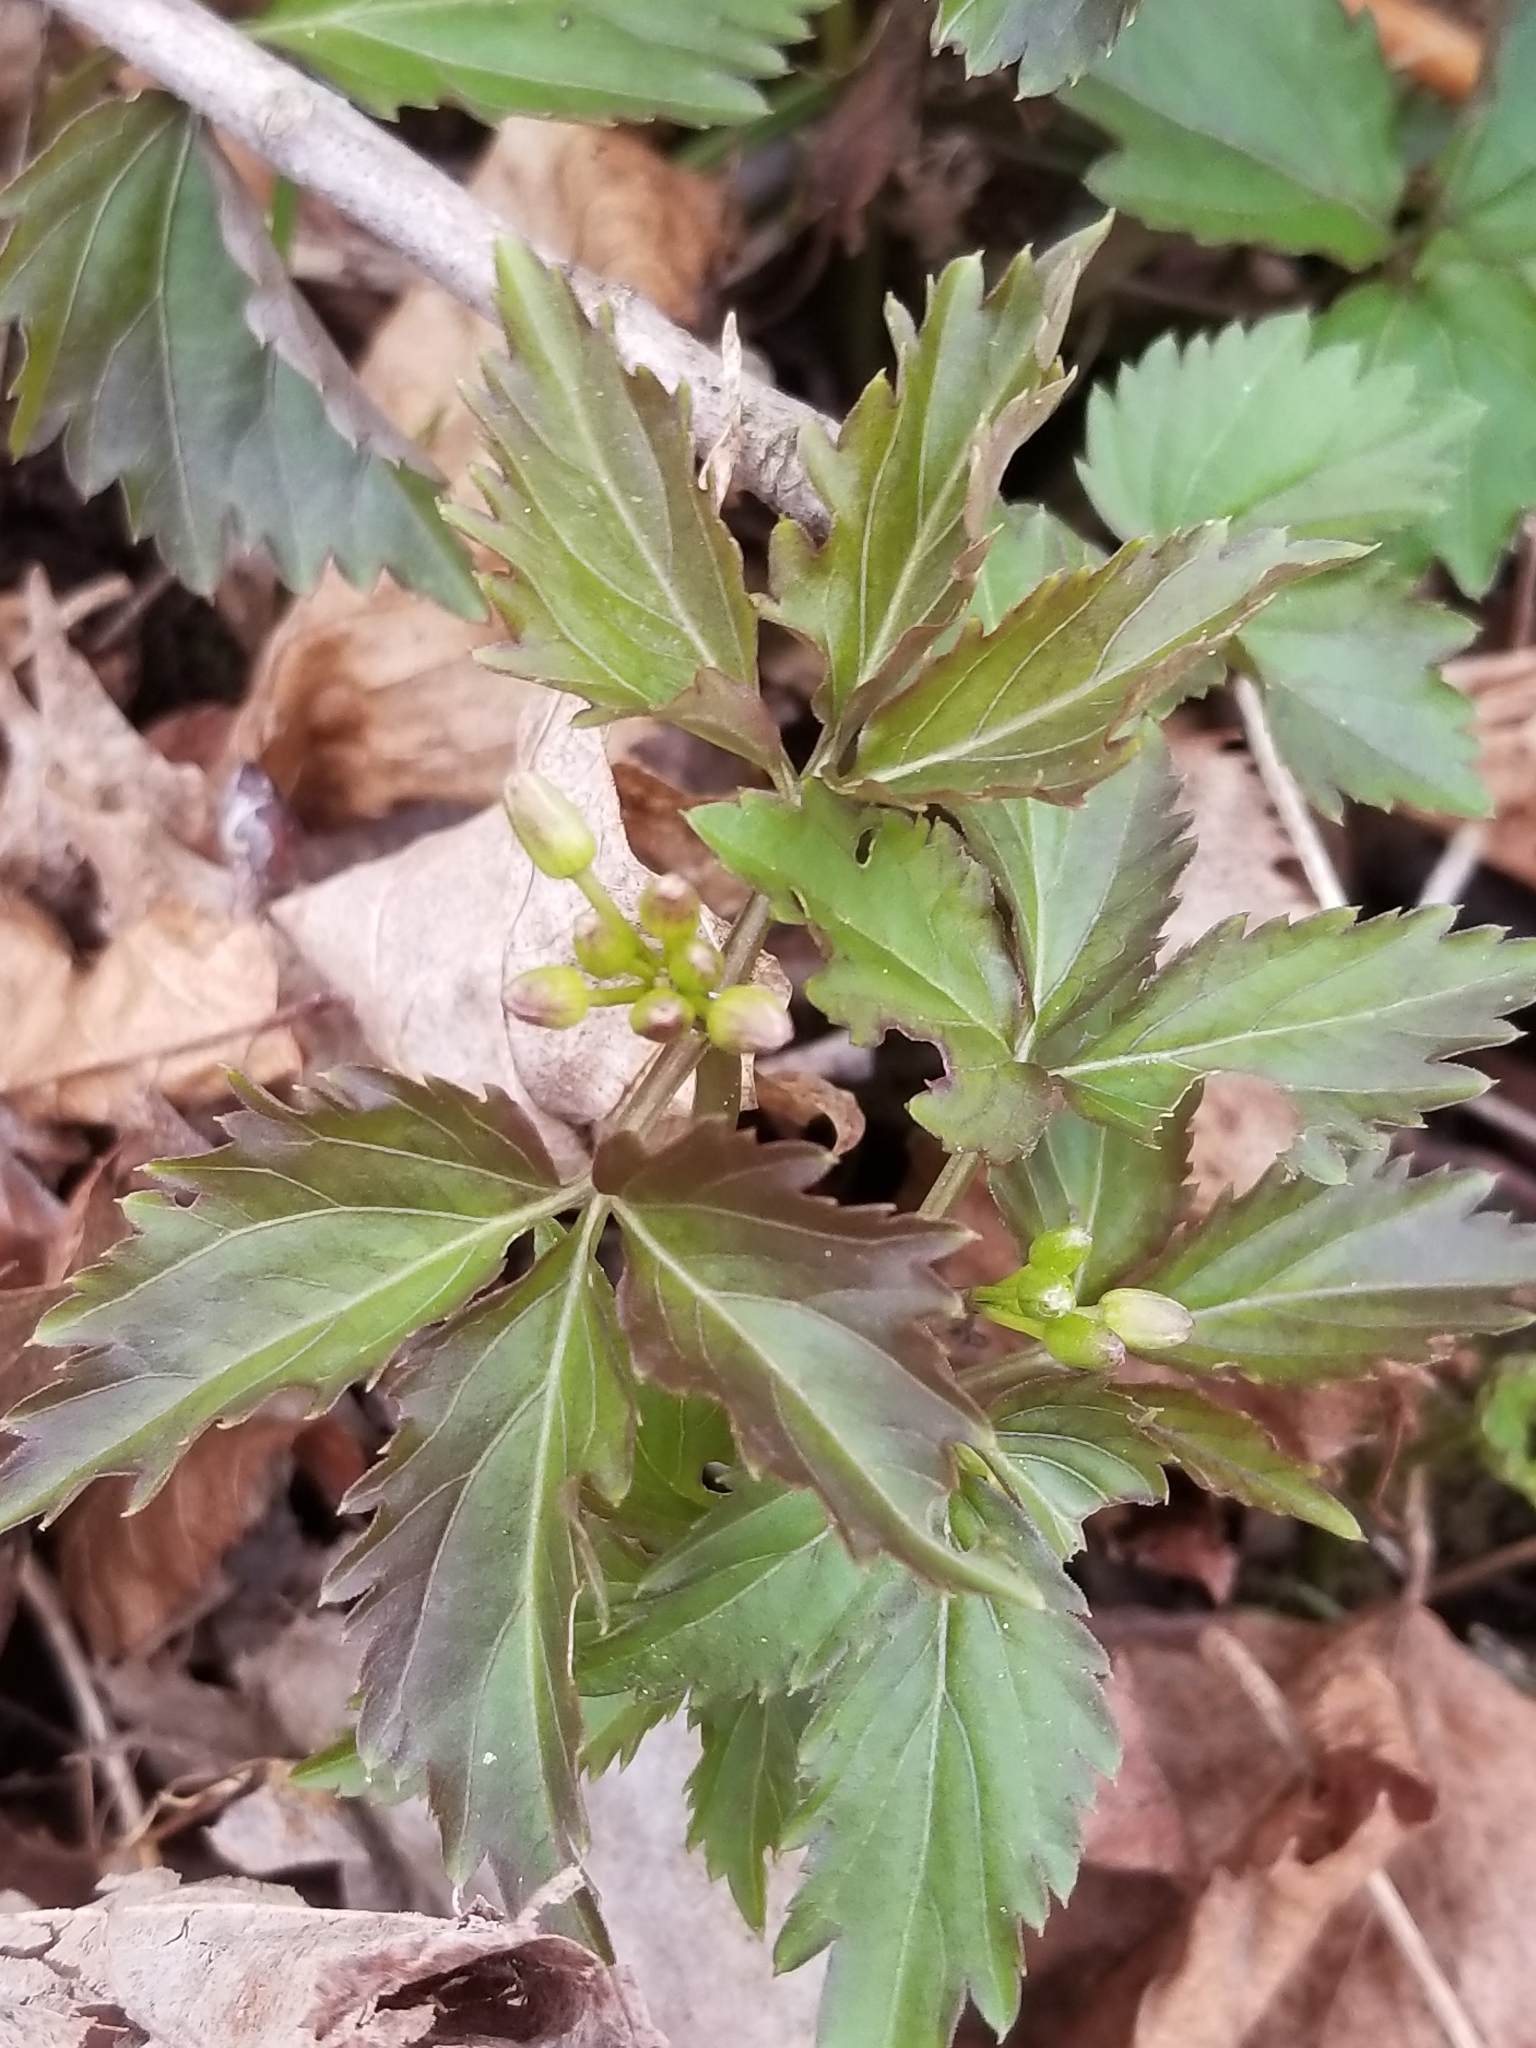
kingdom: Plantae
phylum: Tracheophyta
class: Magnoliopsida
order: Brassicales
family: Brassicaceae
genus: Cardamine
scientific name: Cardamine diphylla
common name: Broad-leaved toothwort
